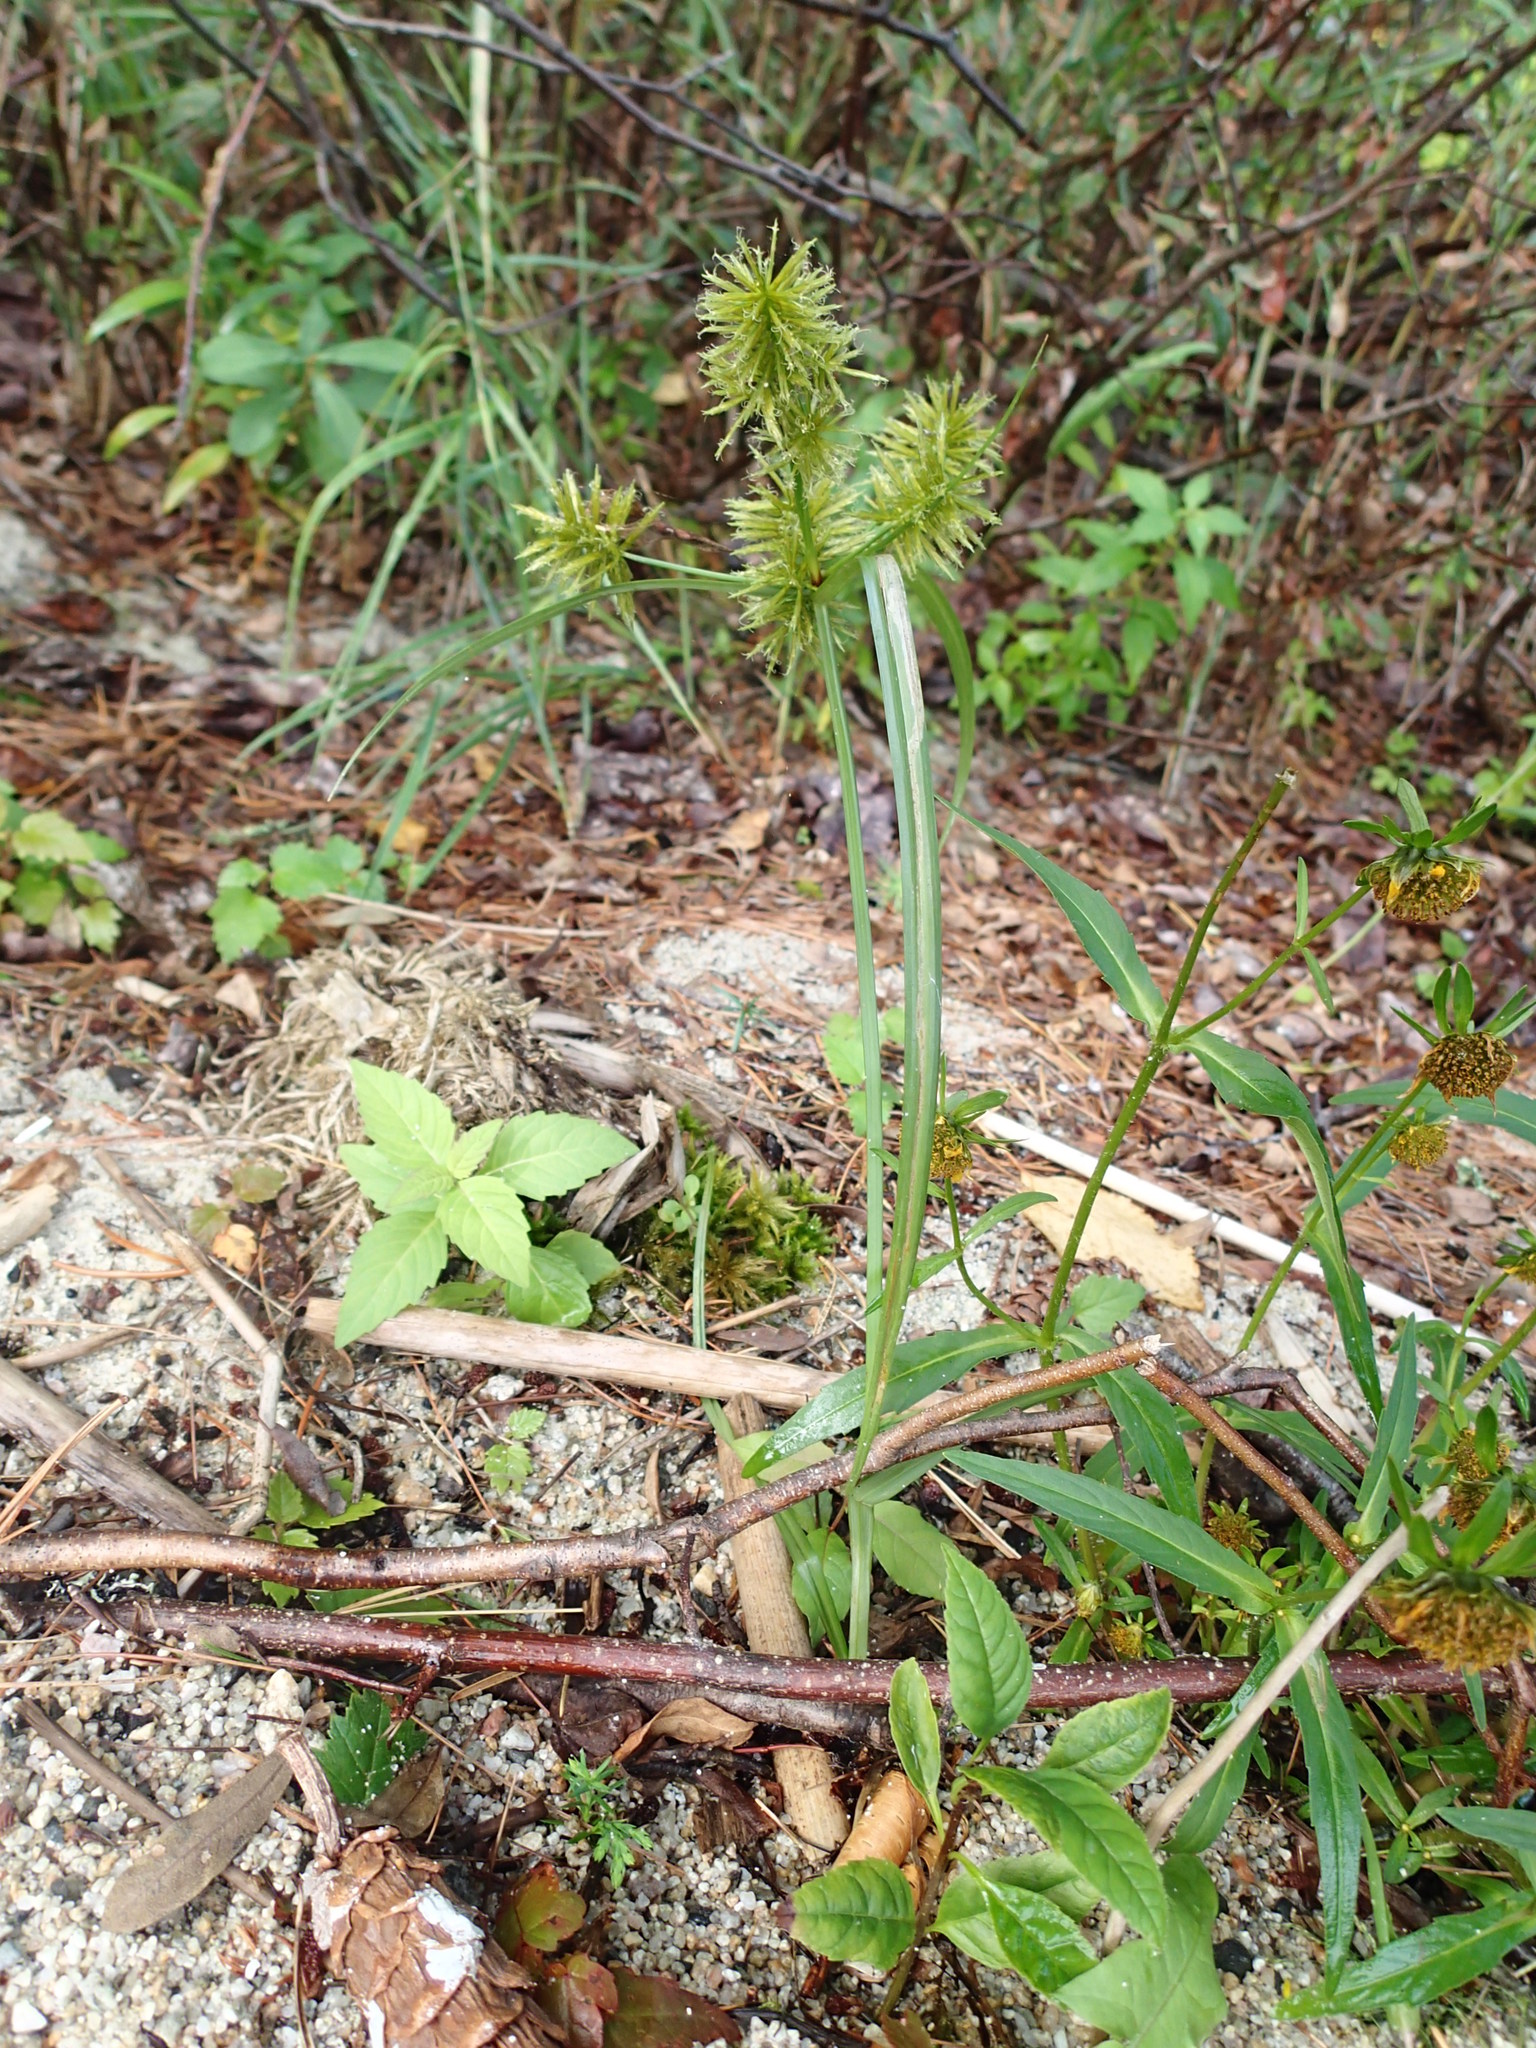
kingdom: Plantae
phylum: Tracheophyta
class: Liliopsida
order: Poales
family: Cyperaceae
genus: Cyperus
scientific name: Cyperus strigosus
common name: False nutsedge
